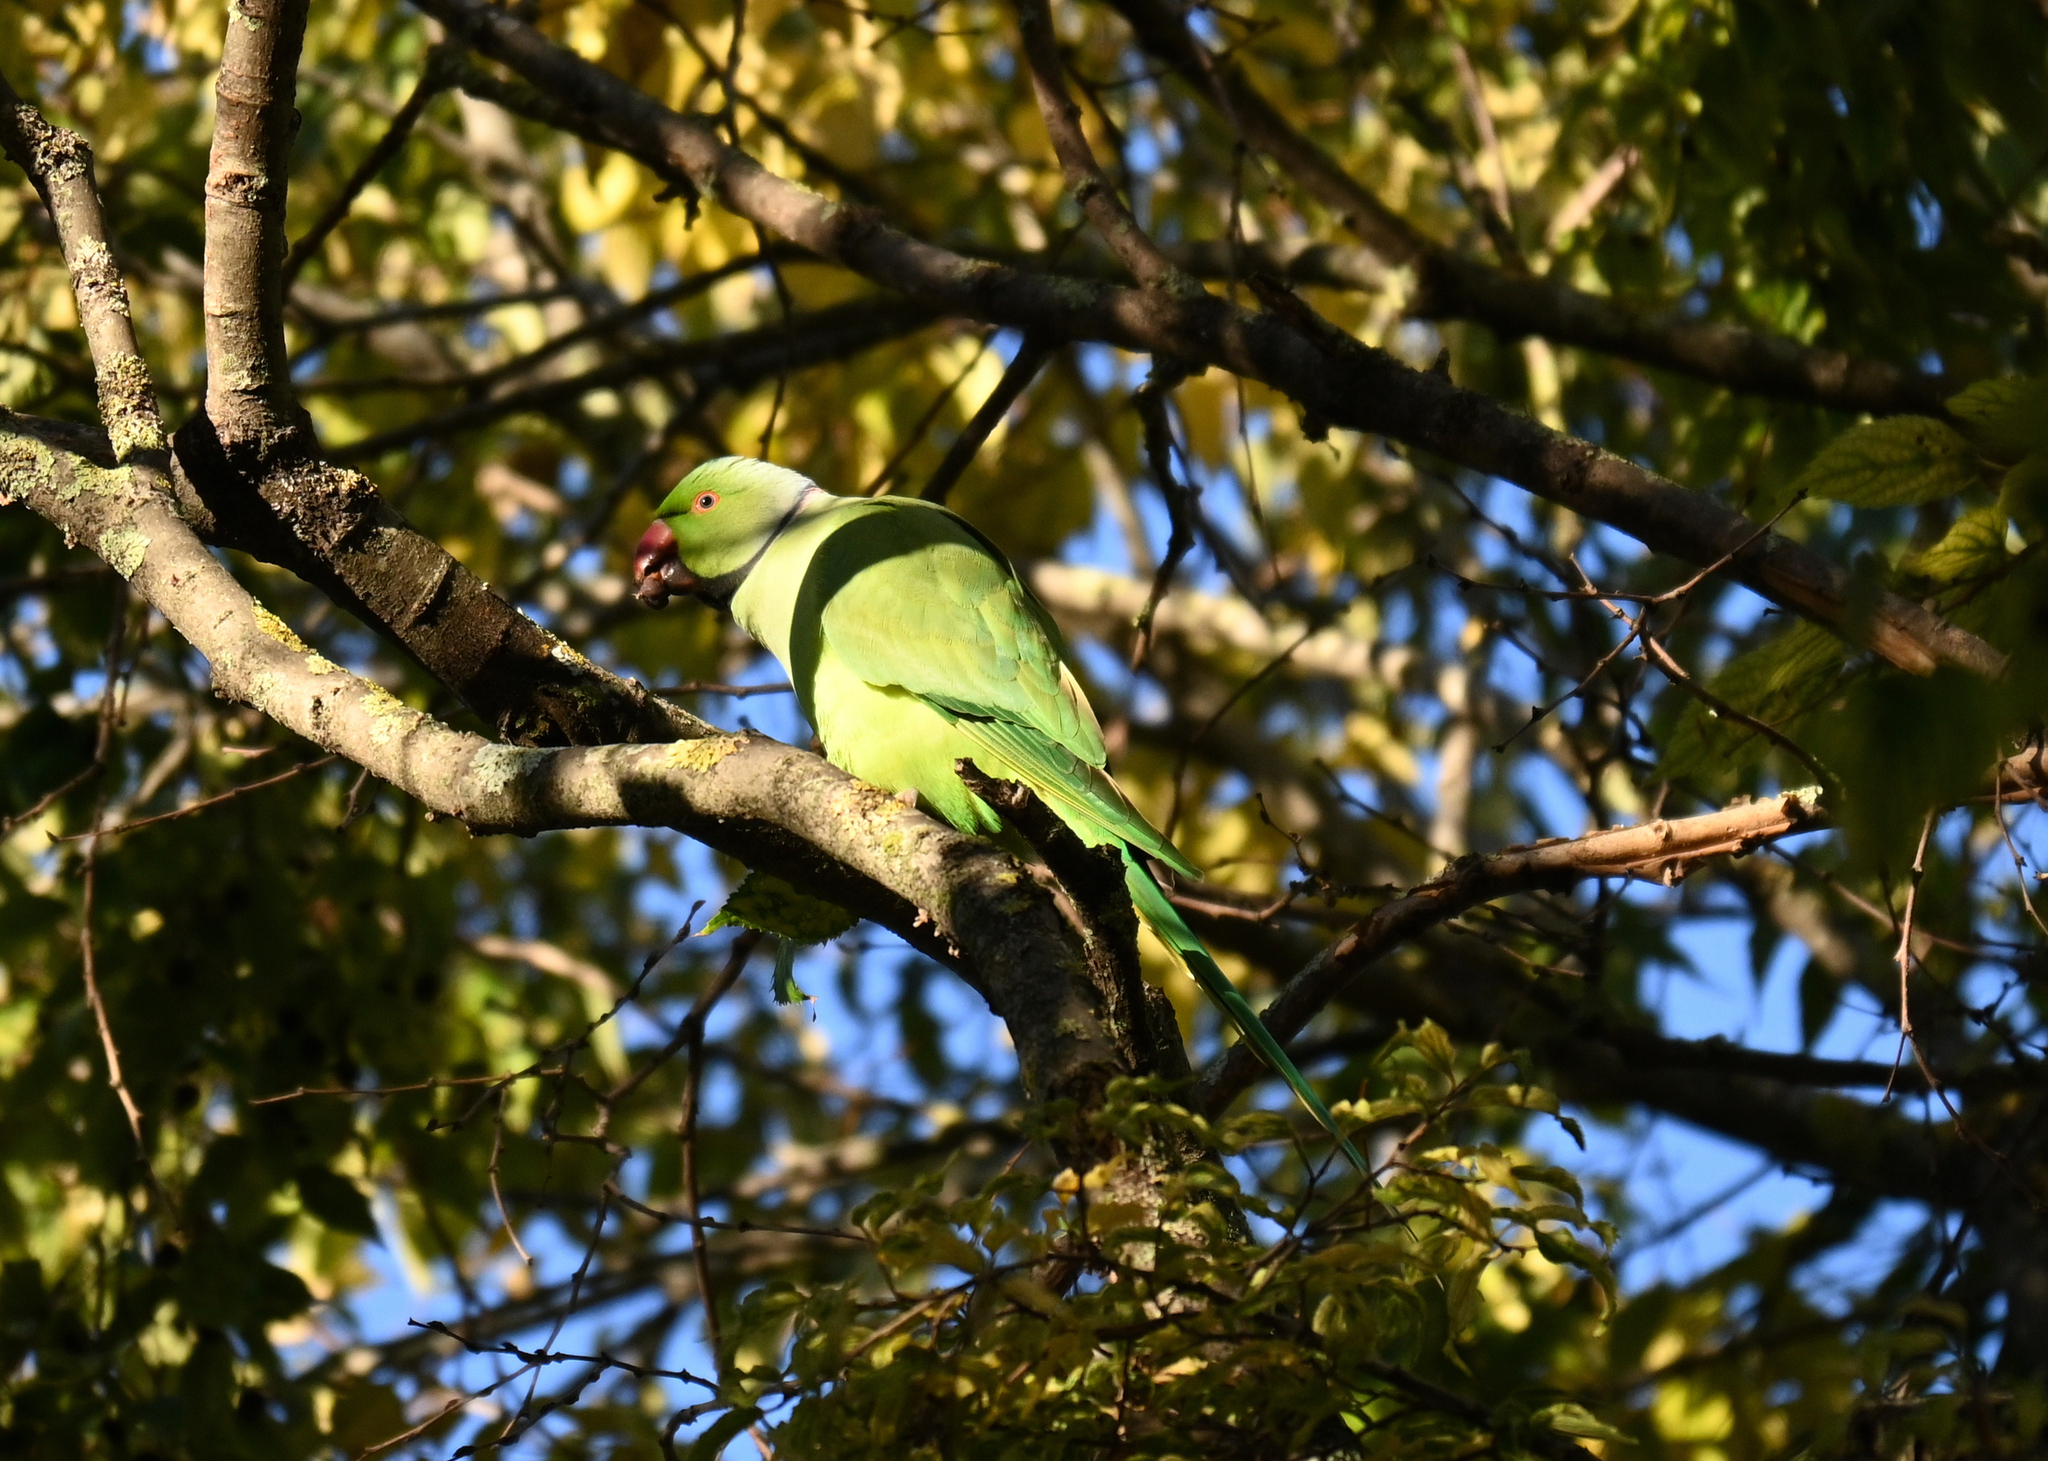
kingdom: Animalia
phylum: Chordata
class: Aves
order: Psittaciformes
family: Psittacidae
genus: Psittacula
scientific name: Psittacula krameri
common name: Rose-ringed parakeet
